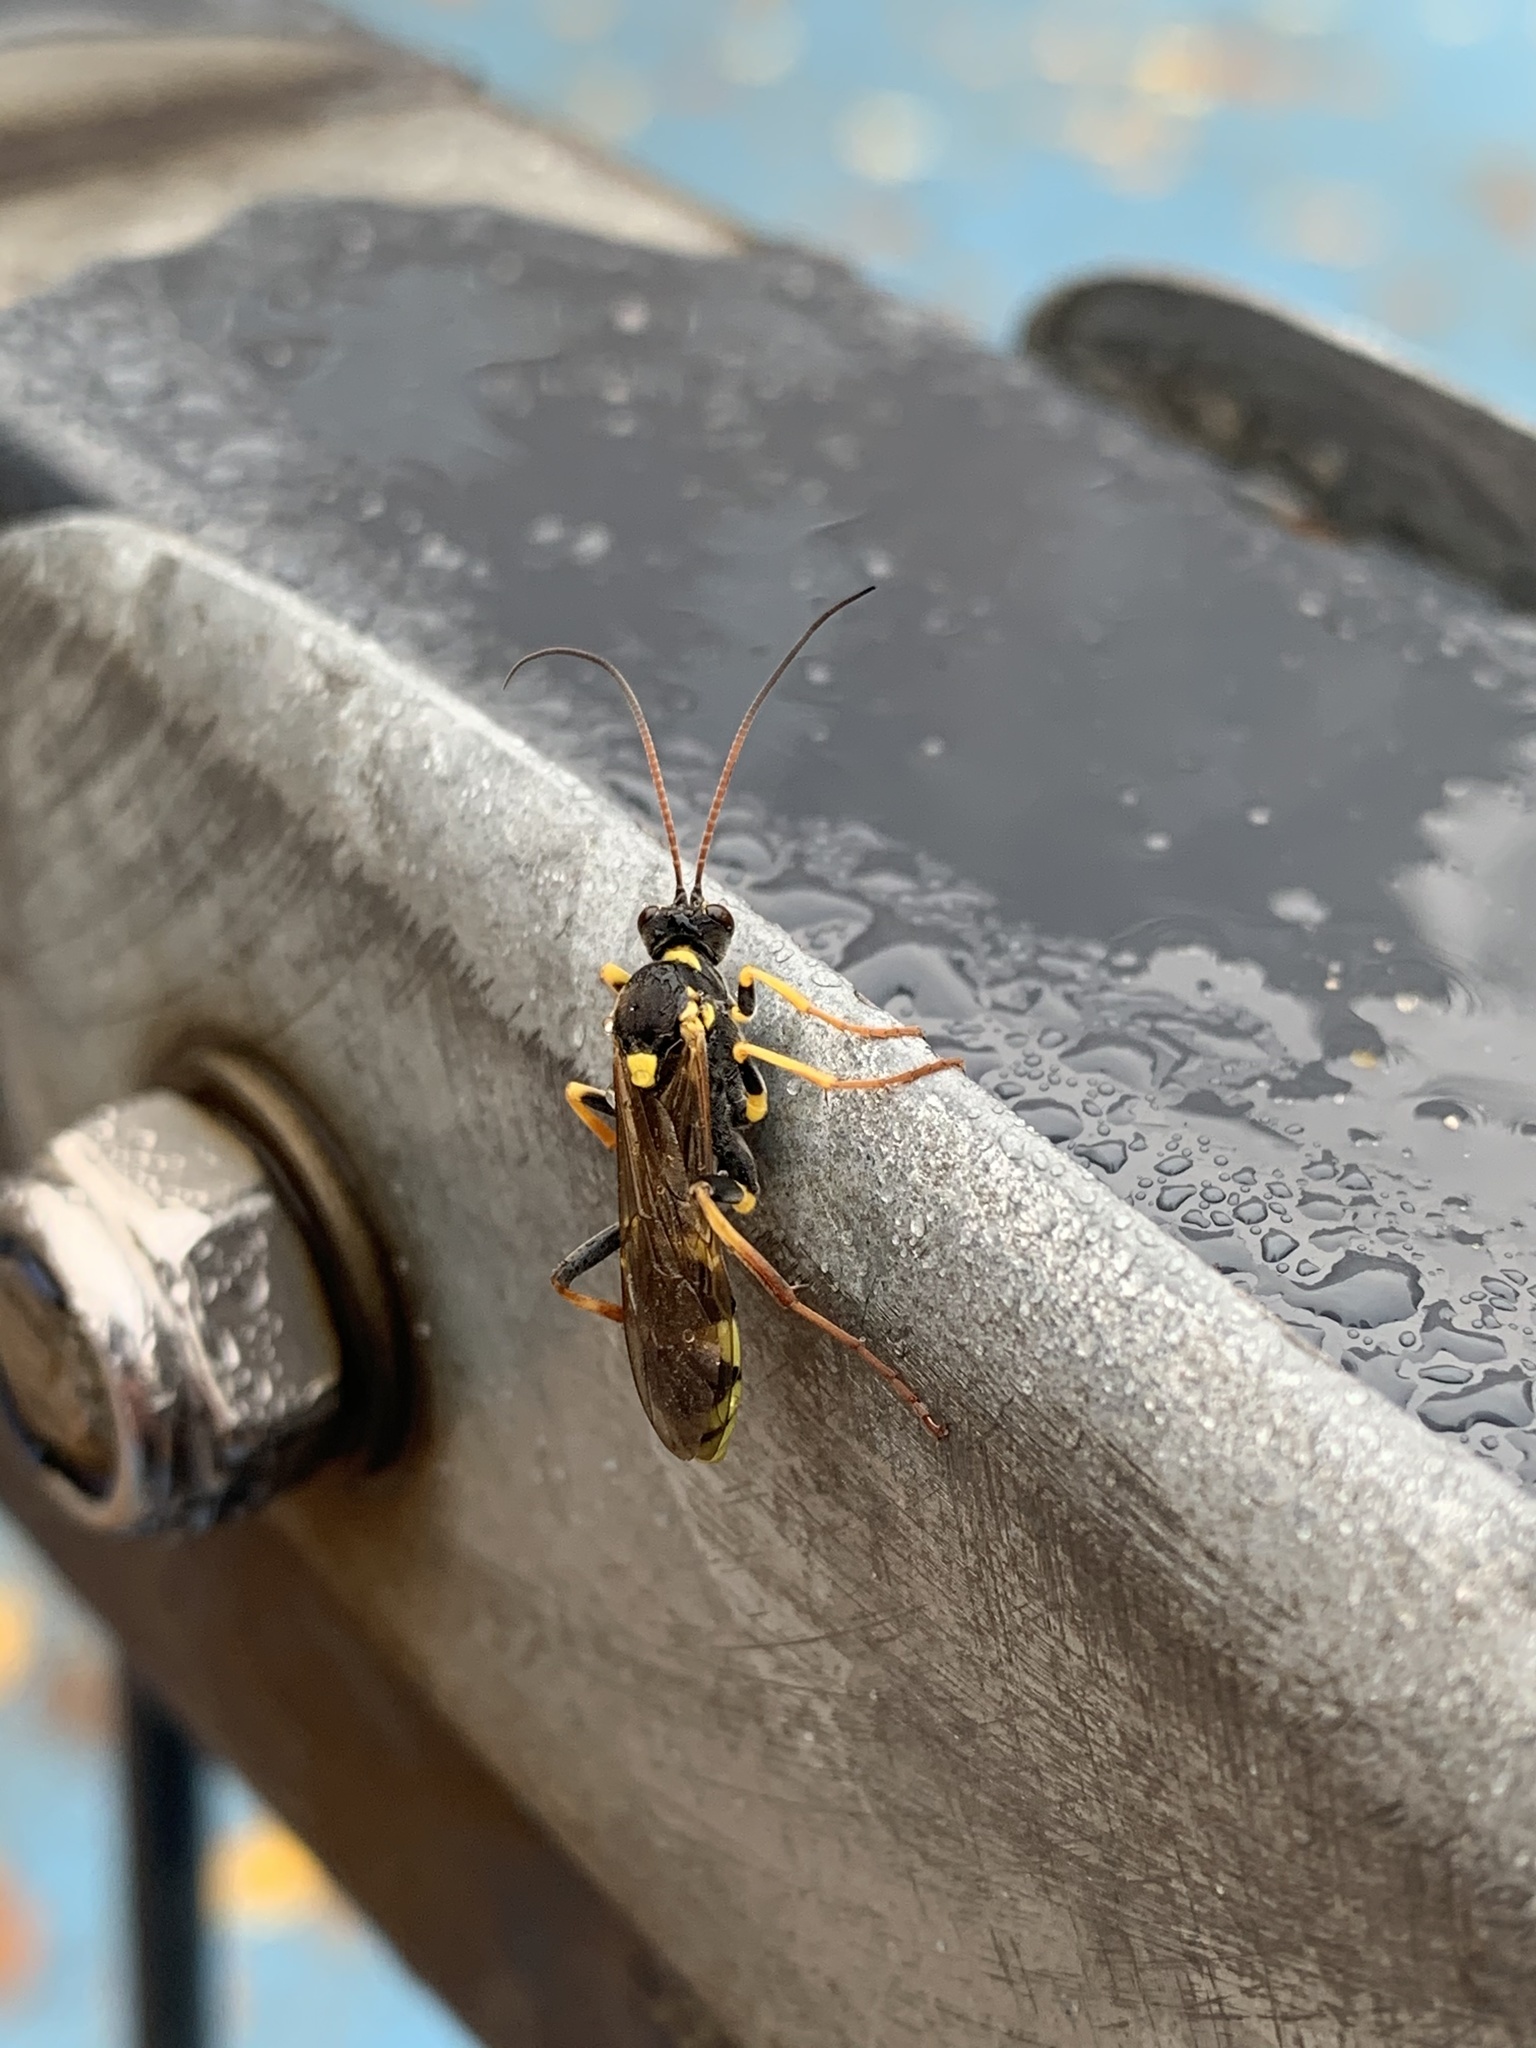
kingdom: Animalia
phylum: Arthropoda
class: Insecta
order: Hymenoptera
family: Ichneumonidae
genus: Amblyteles
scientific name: Amblyteles armatorius
